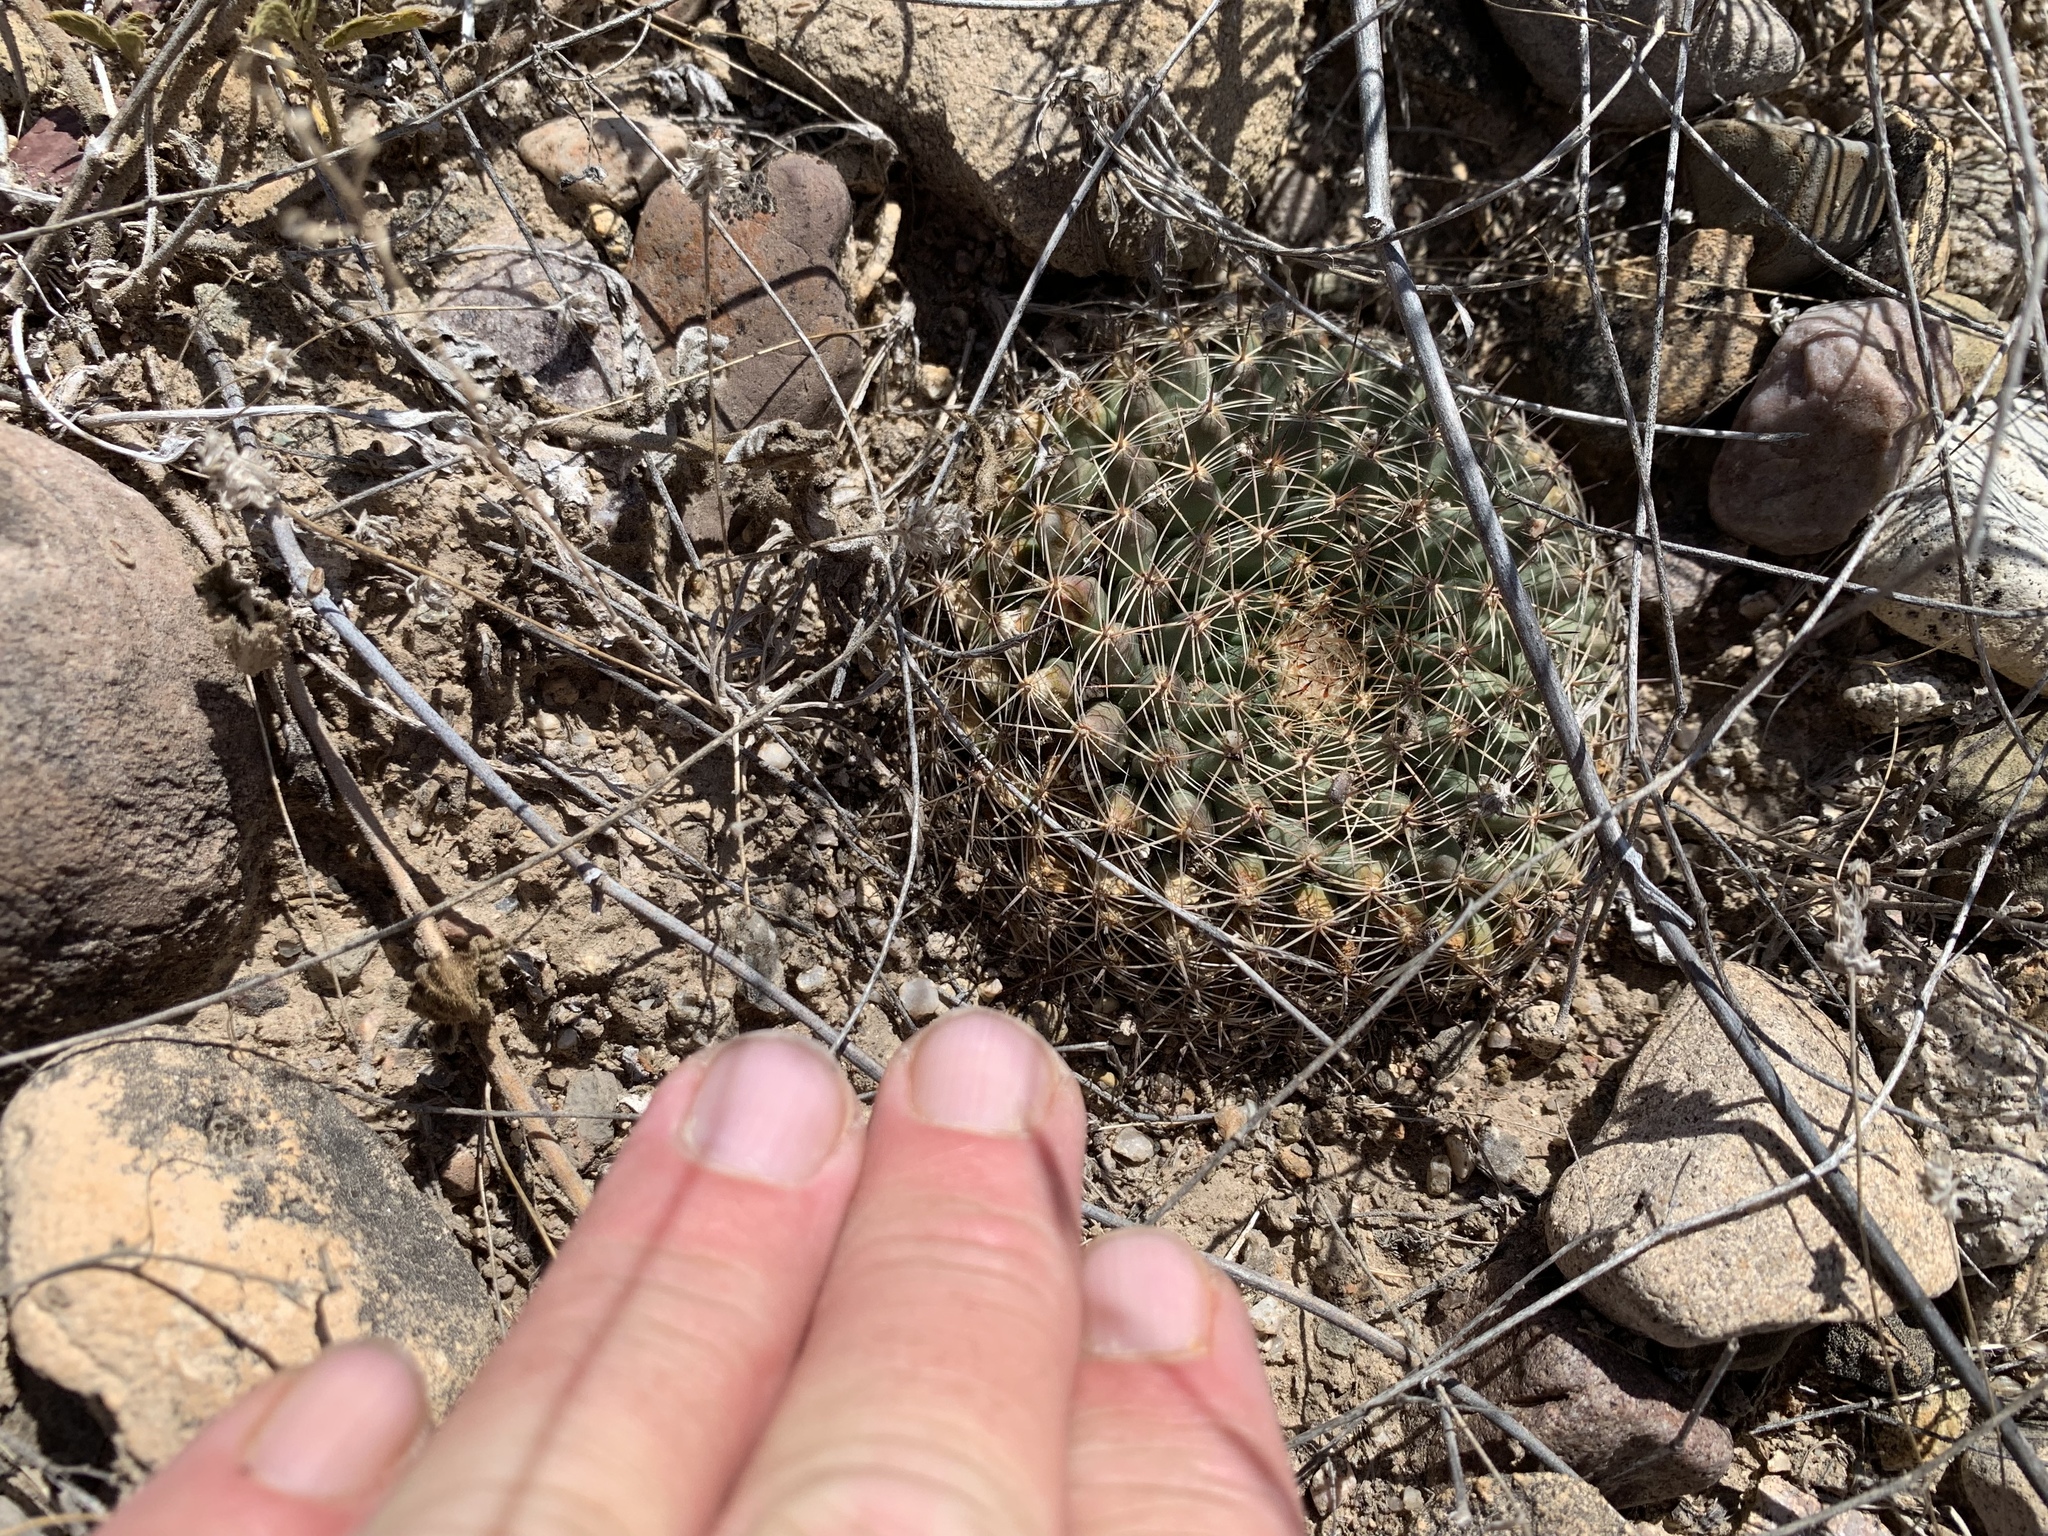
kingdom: Plantae
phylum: Tracheophyta
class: Magnoliopsida
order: Caryophyllales
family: Cactaceae
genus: Mammillaria
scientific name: Mammillaria heyderi
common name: Little nipple cactus
